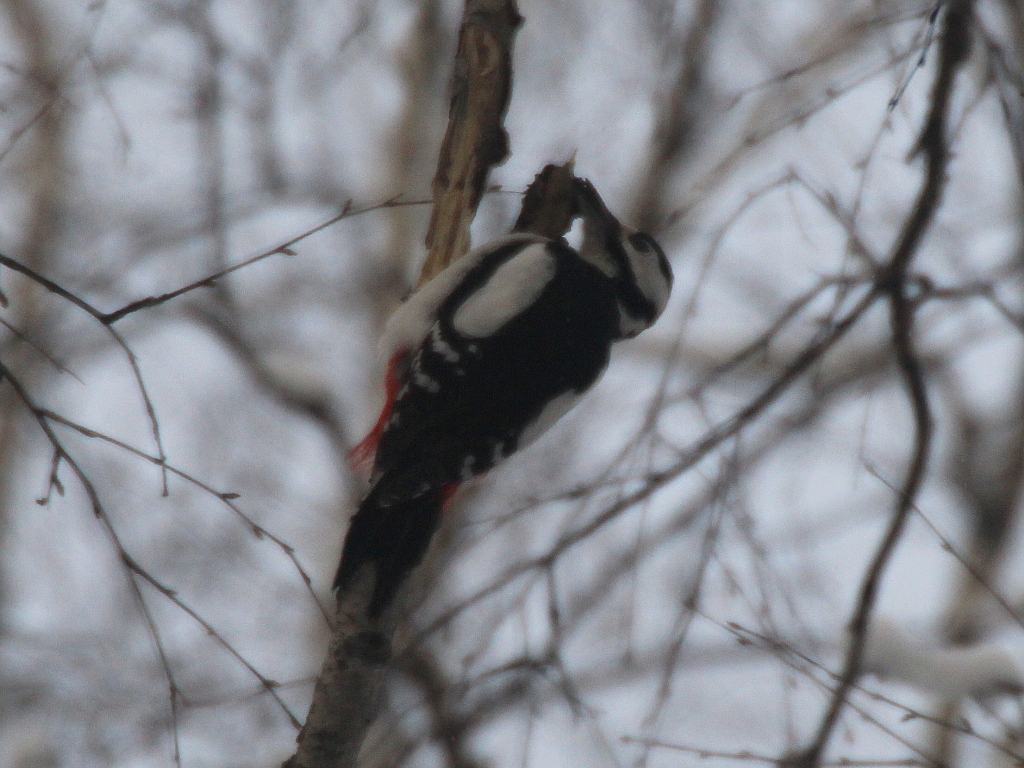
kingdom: Animalia
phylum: Chordata
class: Aves
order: Piciformes
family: Picidae
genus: Dendrocopos
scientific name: Dendrocopos major
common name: Great spotted woodpecker
